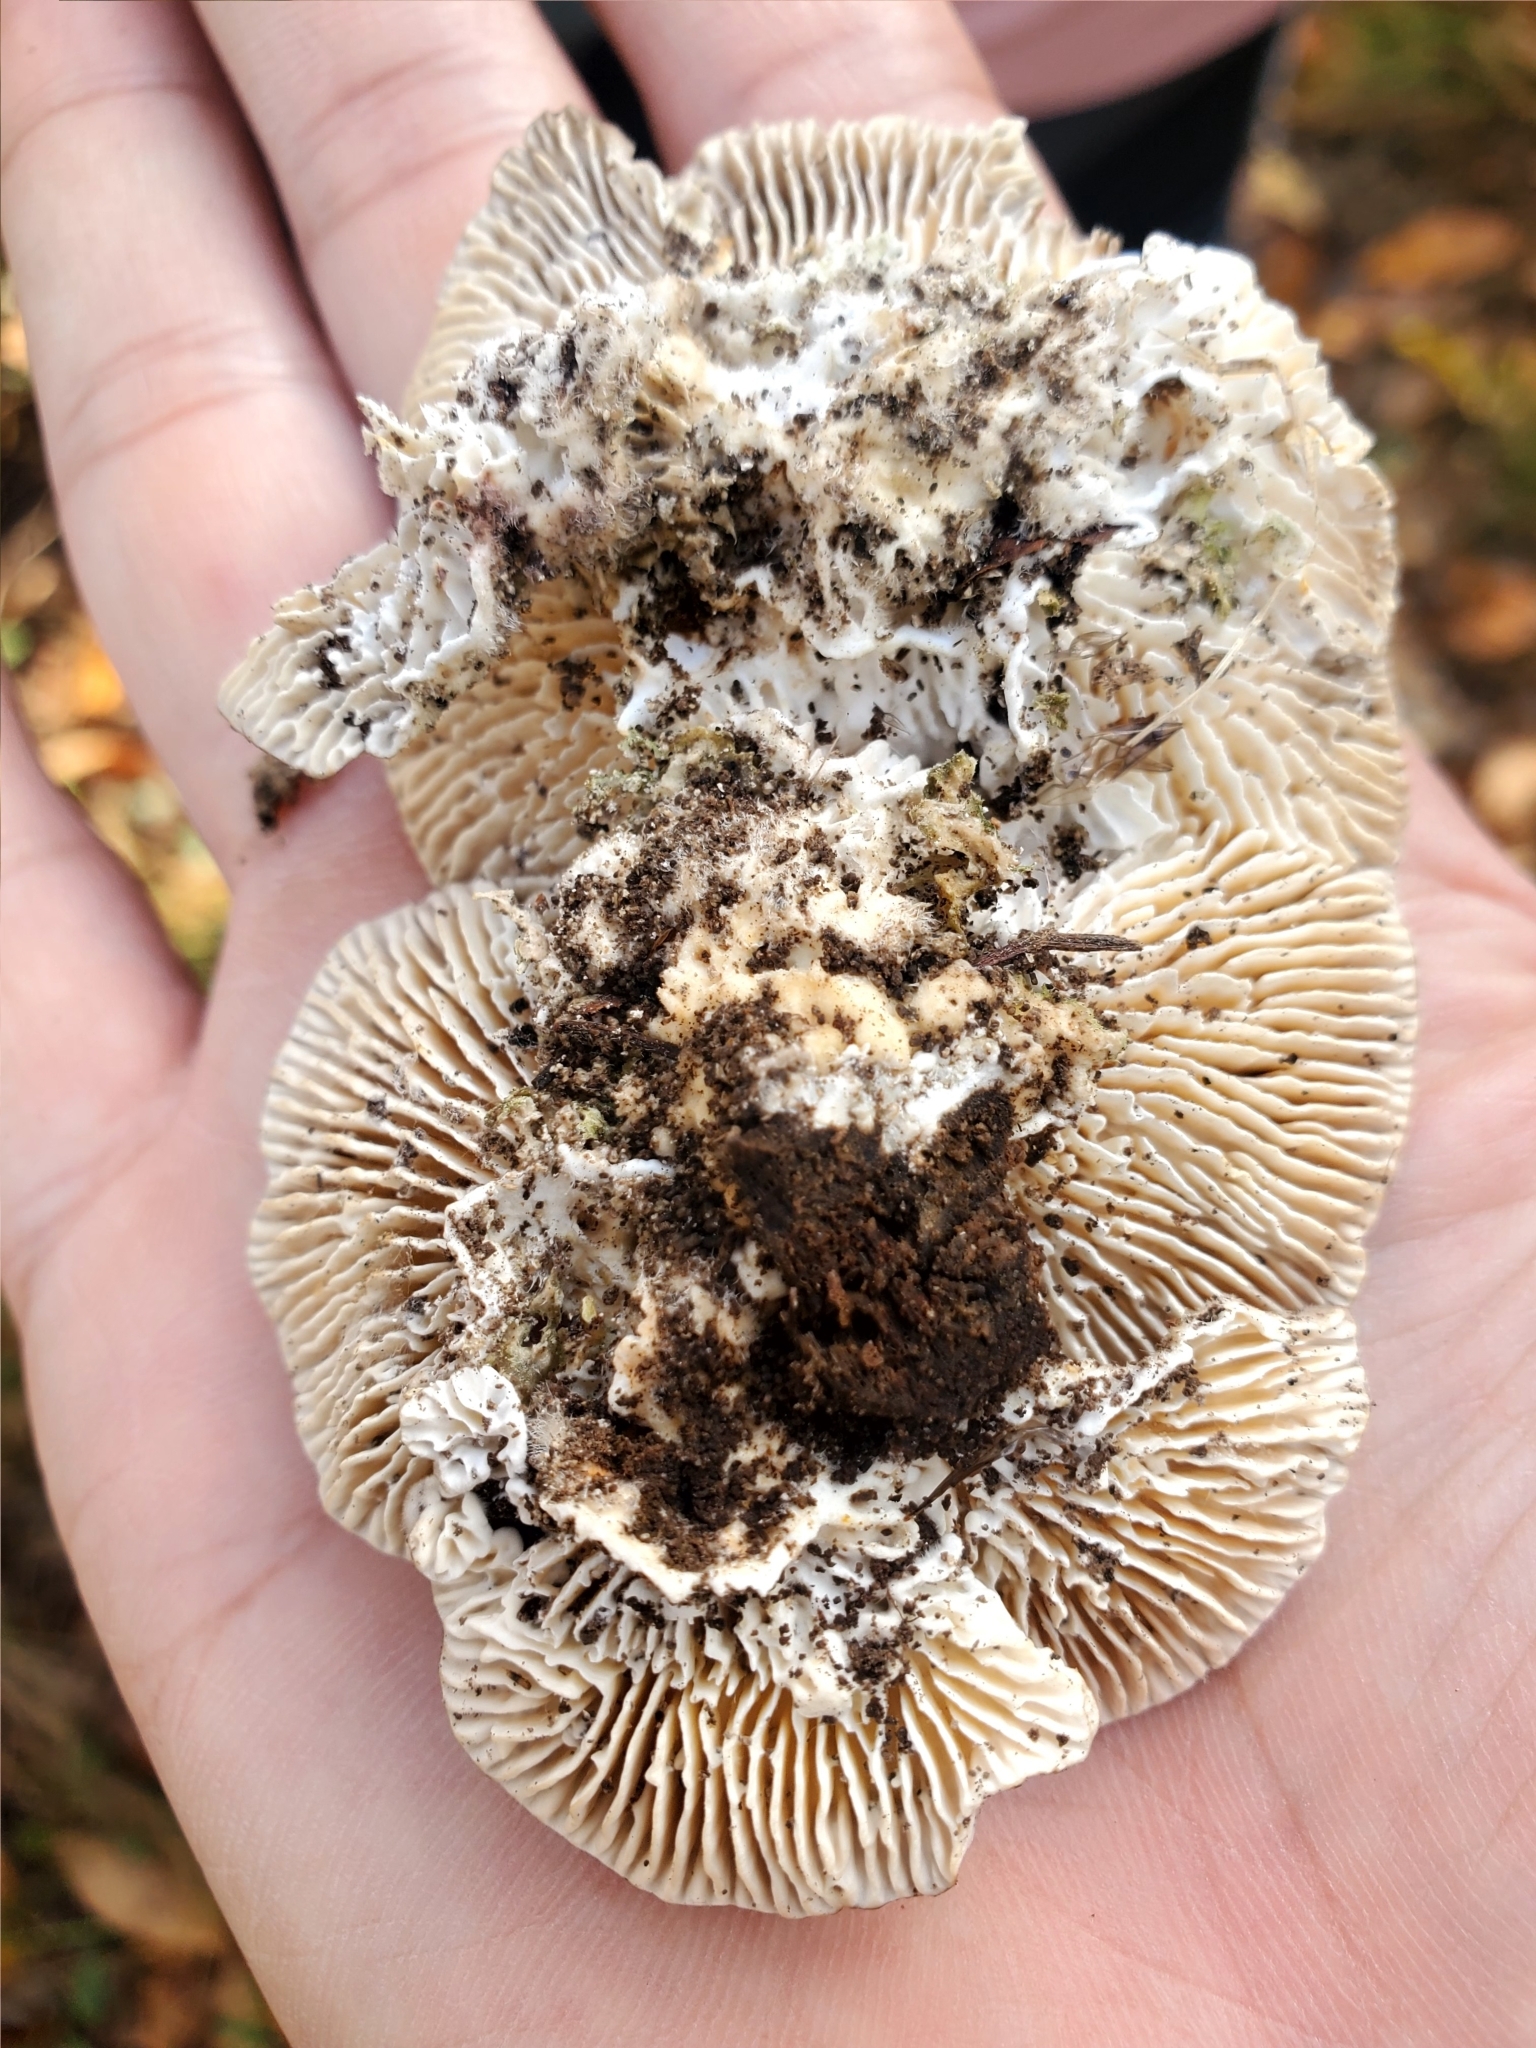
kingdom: Fungi
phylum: Basidiomycota
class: Agaricomycetes
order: Polyporales
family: Polyporaceae
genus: Lenzites
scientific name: Lenzites betulinus
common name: Birch mazegill
